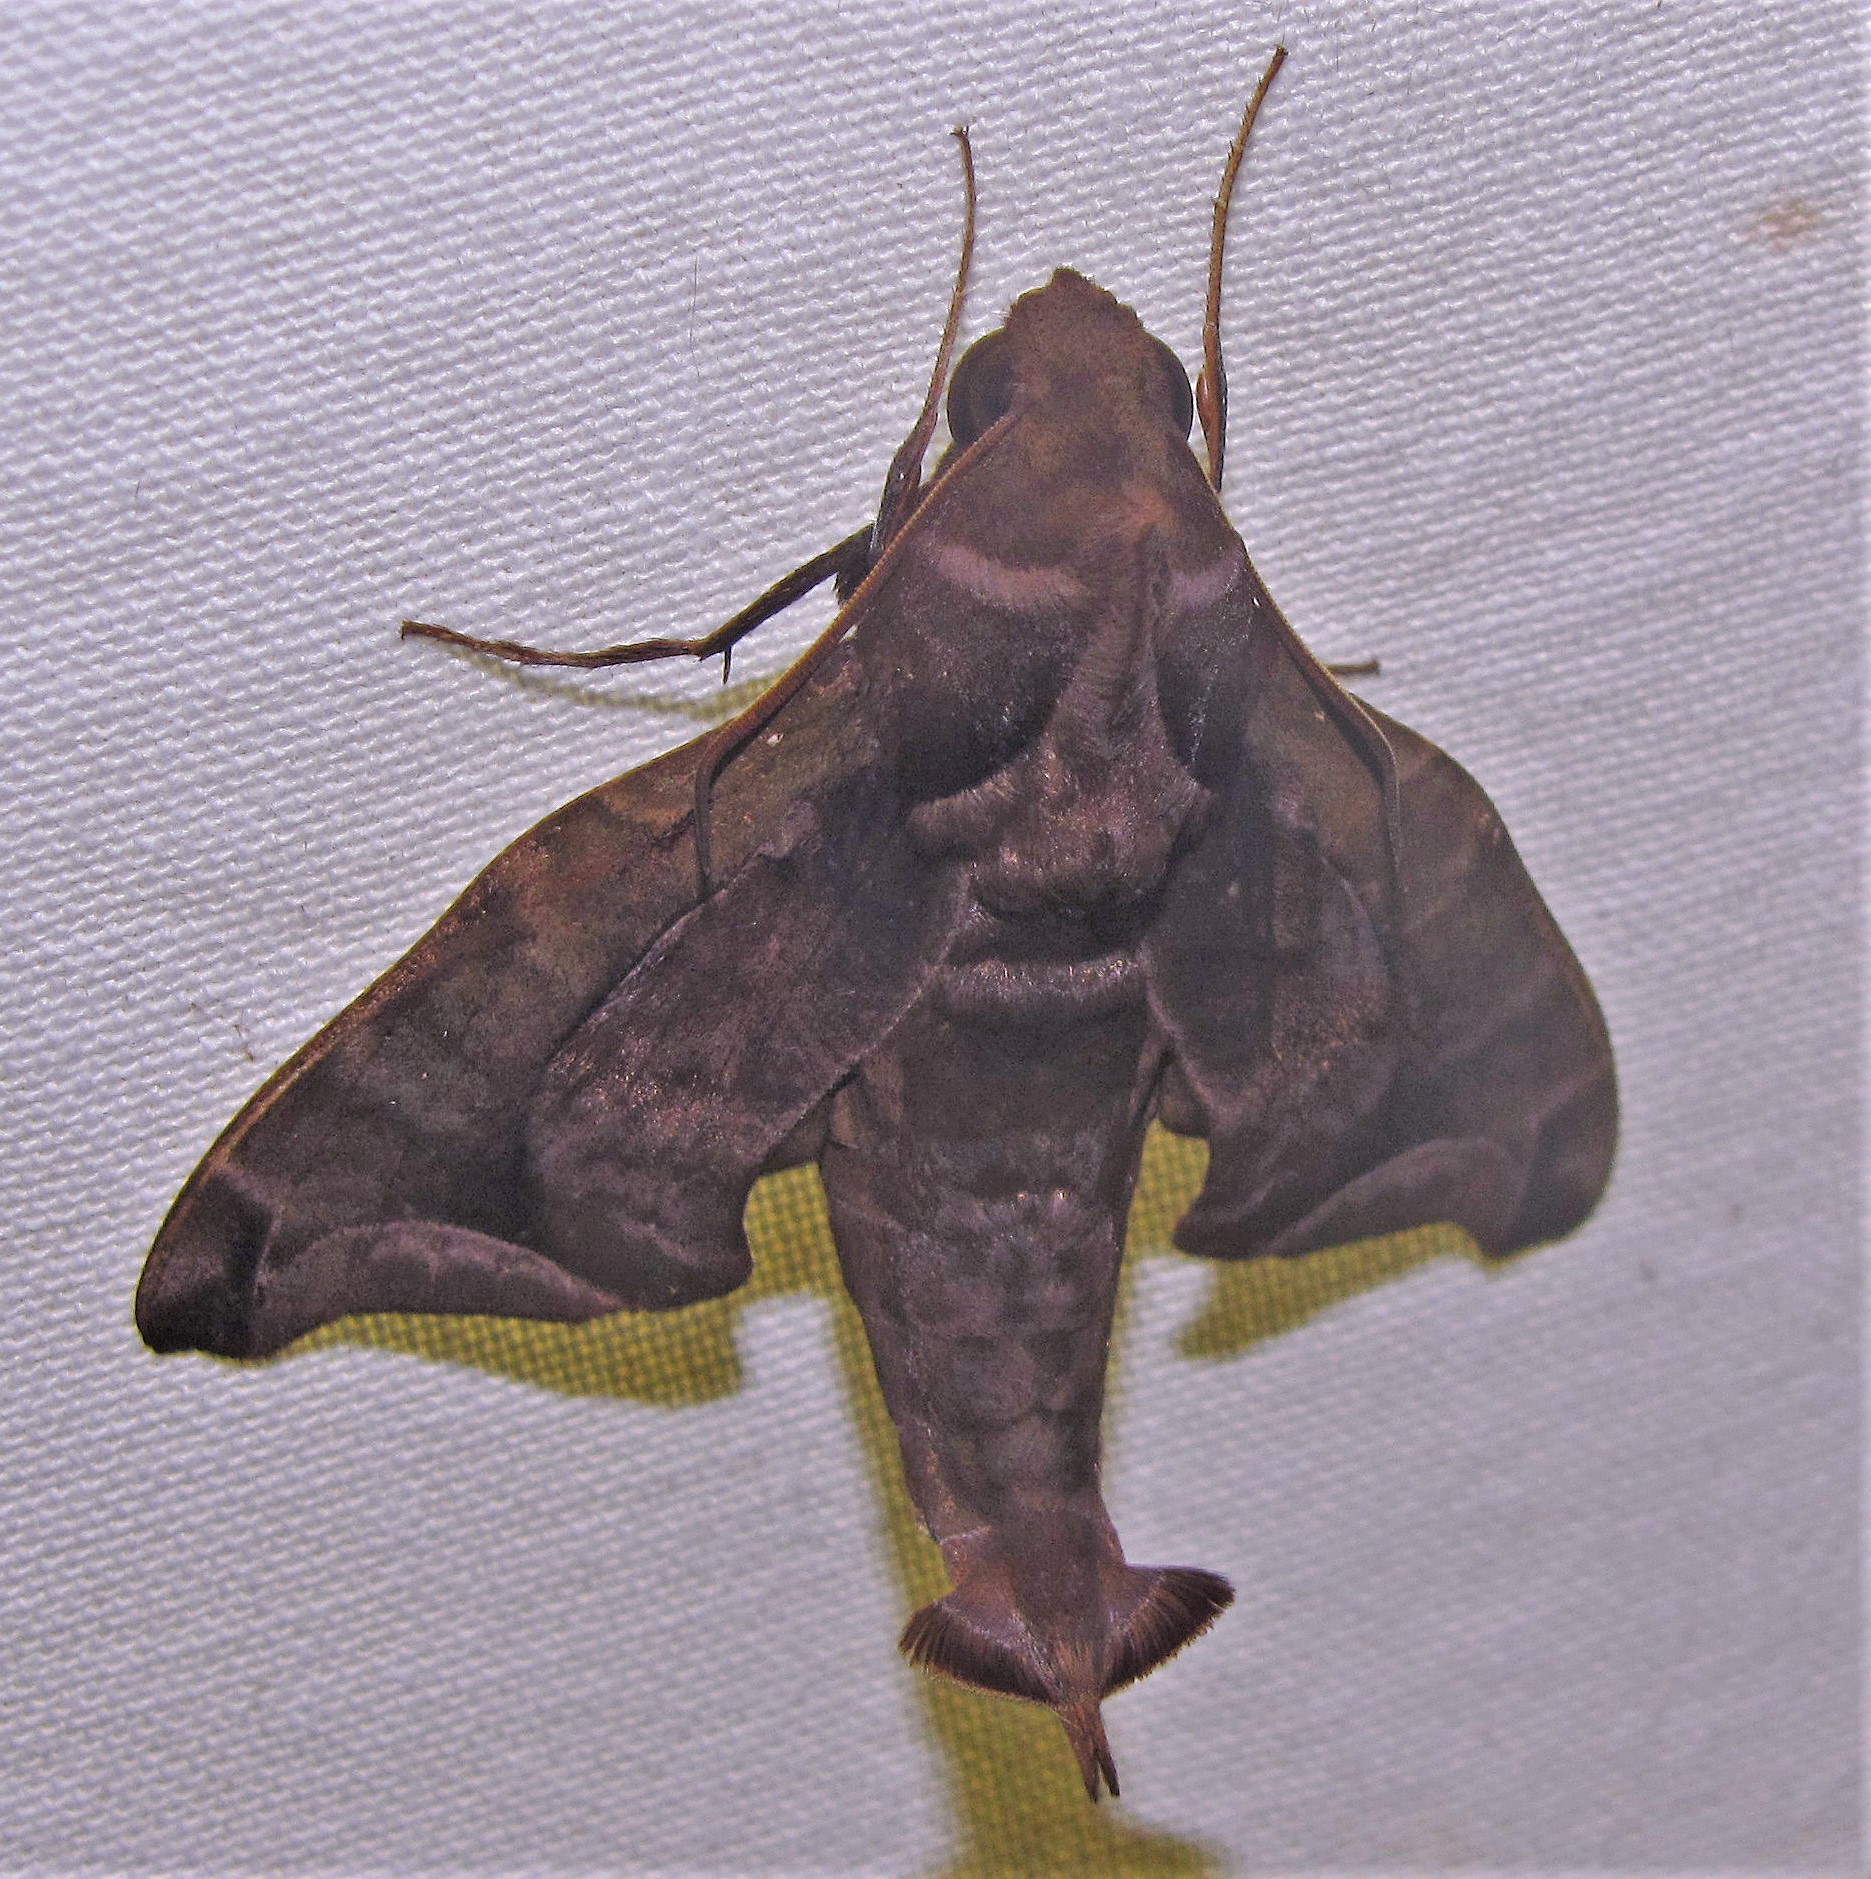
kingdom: Animalia
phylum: Arthropoda
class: Insecta
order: Lepidoptera
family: Sphingidae
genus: Enyo
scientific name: Enyo gorgon
